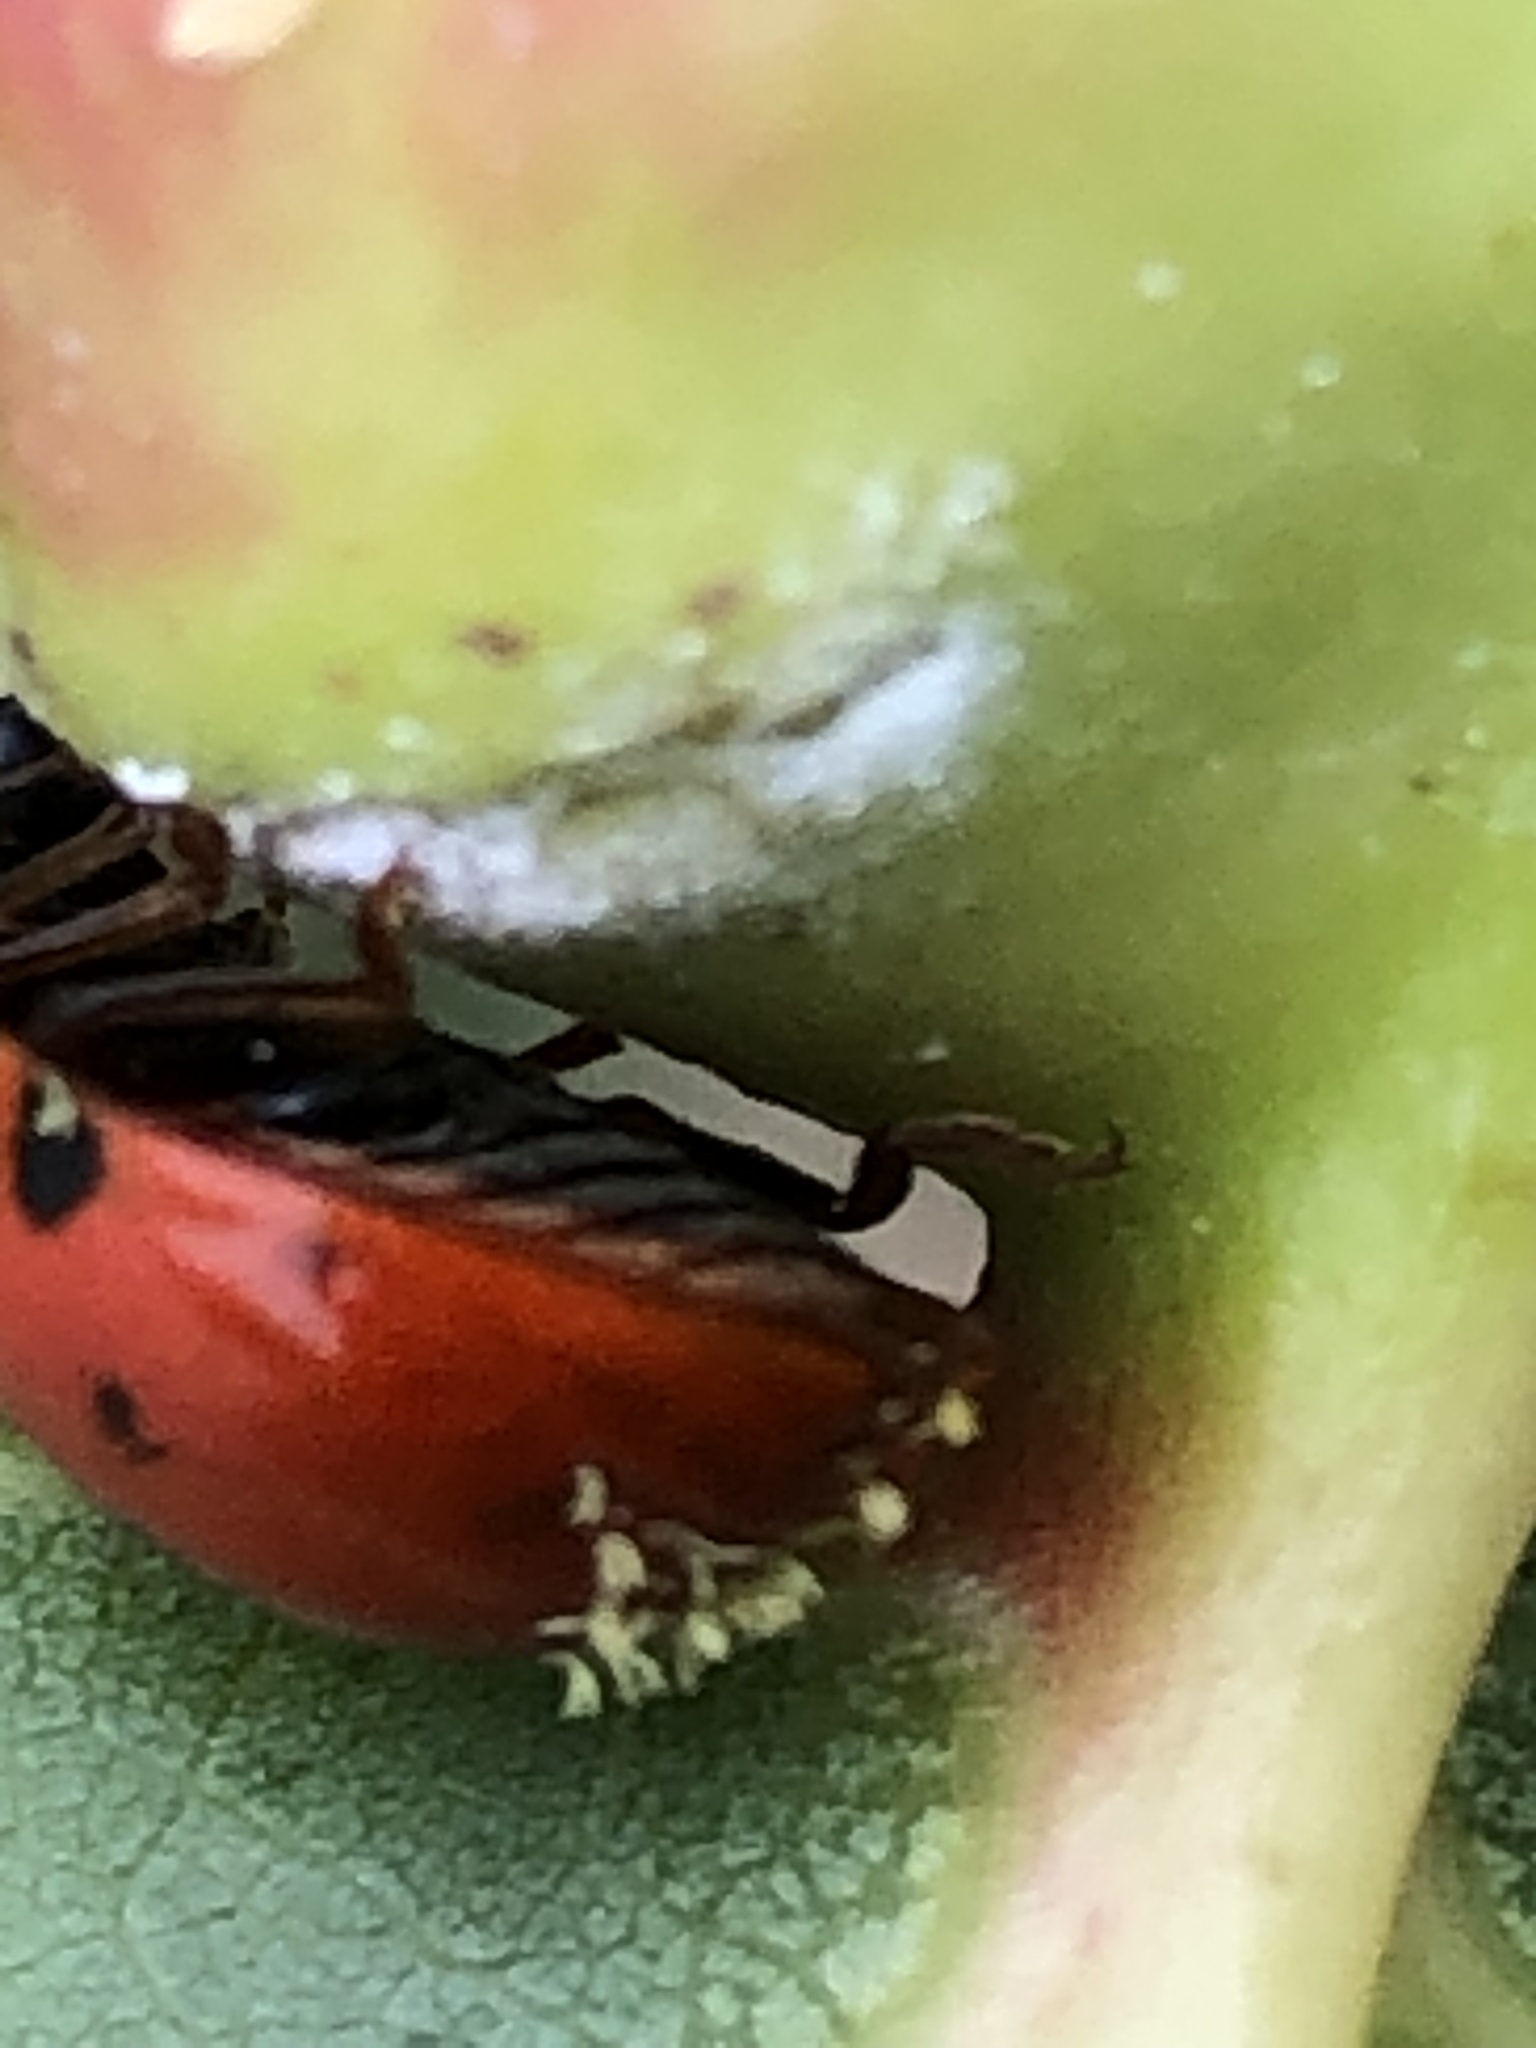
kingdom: Fungi
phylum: Ascomycota
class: Laboulbeniomycetes
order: Laboulbeniales
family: Laboulbeniaceae
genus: Hesperomyces
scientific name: Hesperomyces harmoniae
